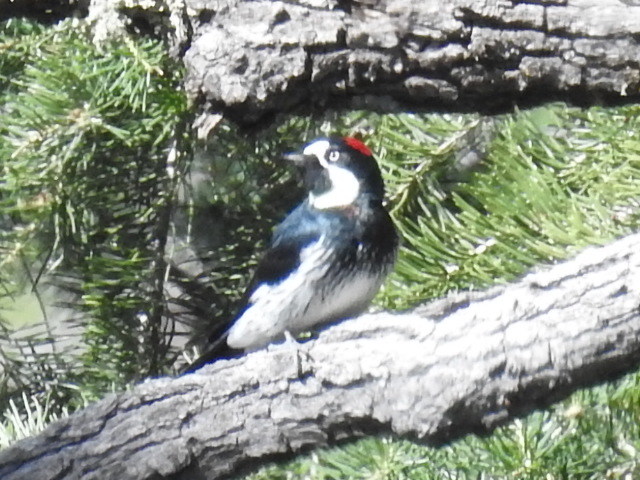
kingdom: Animalia
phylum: Chordata
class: Aves
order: Piciformes
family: Picidae
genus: Melanerpes
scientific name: Melanerpes formicivorus
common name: Acorn woodpecker
